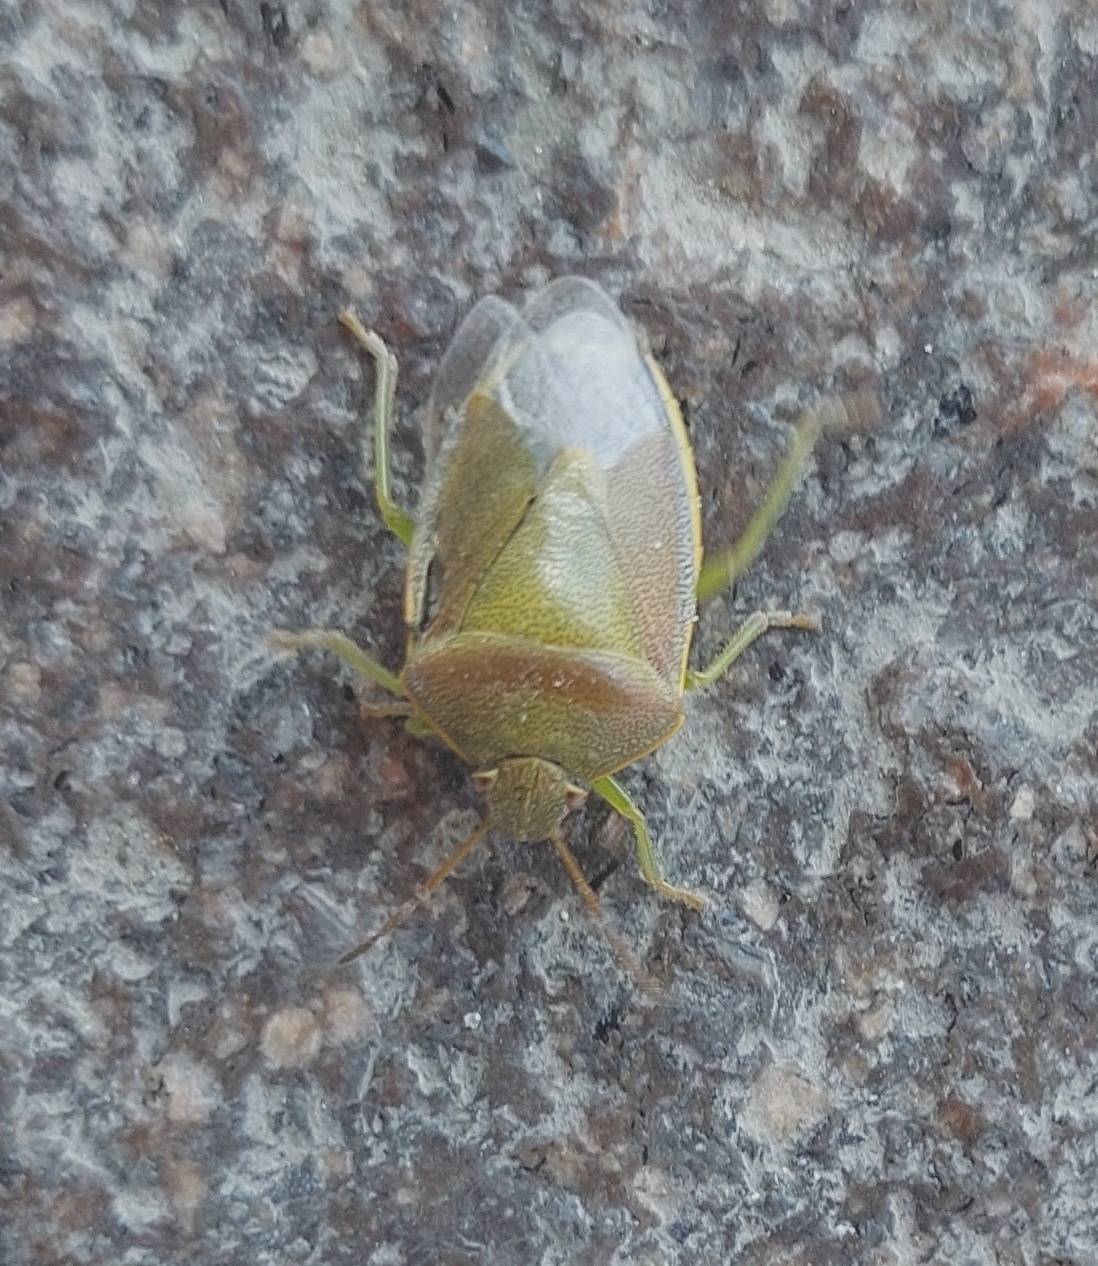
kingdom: Animalia
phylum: Arthropoda
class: Insecta
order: Hemiptera
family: Pentatomidae
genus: Piezodorus
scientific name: Piezodorus lituratus
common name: Stink bug
